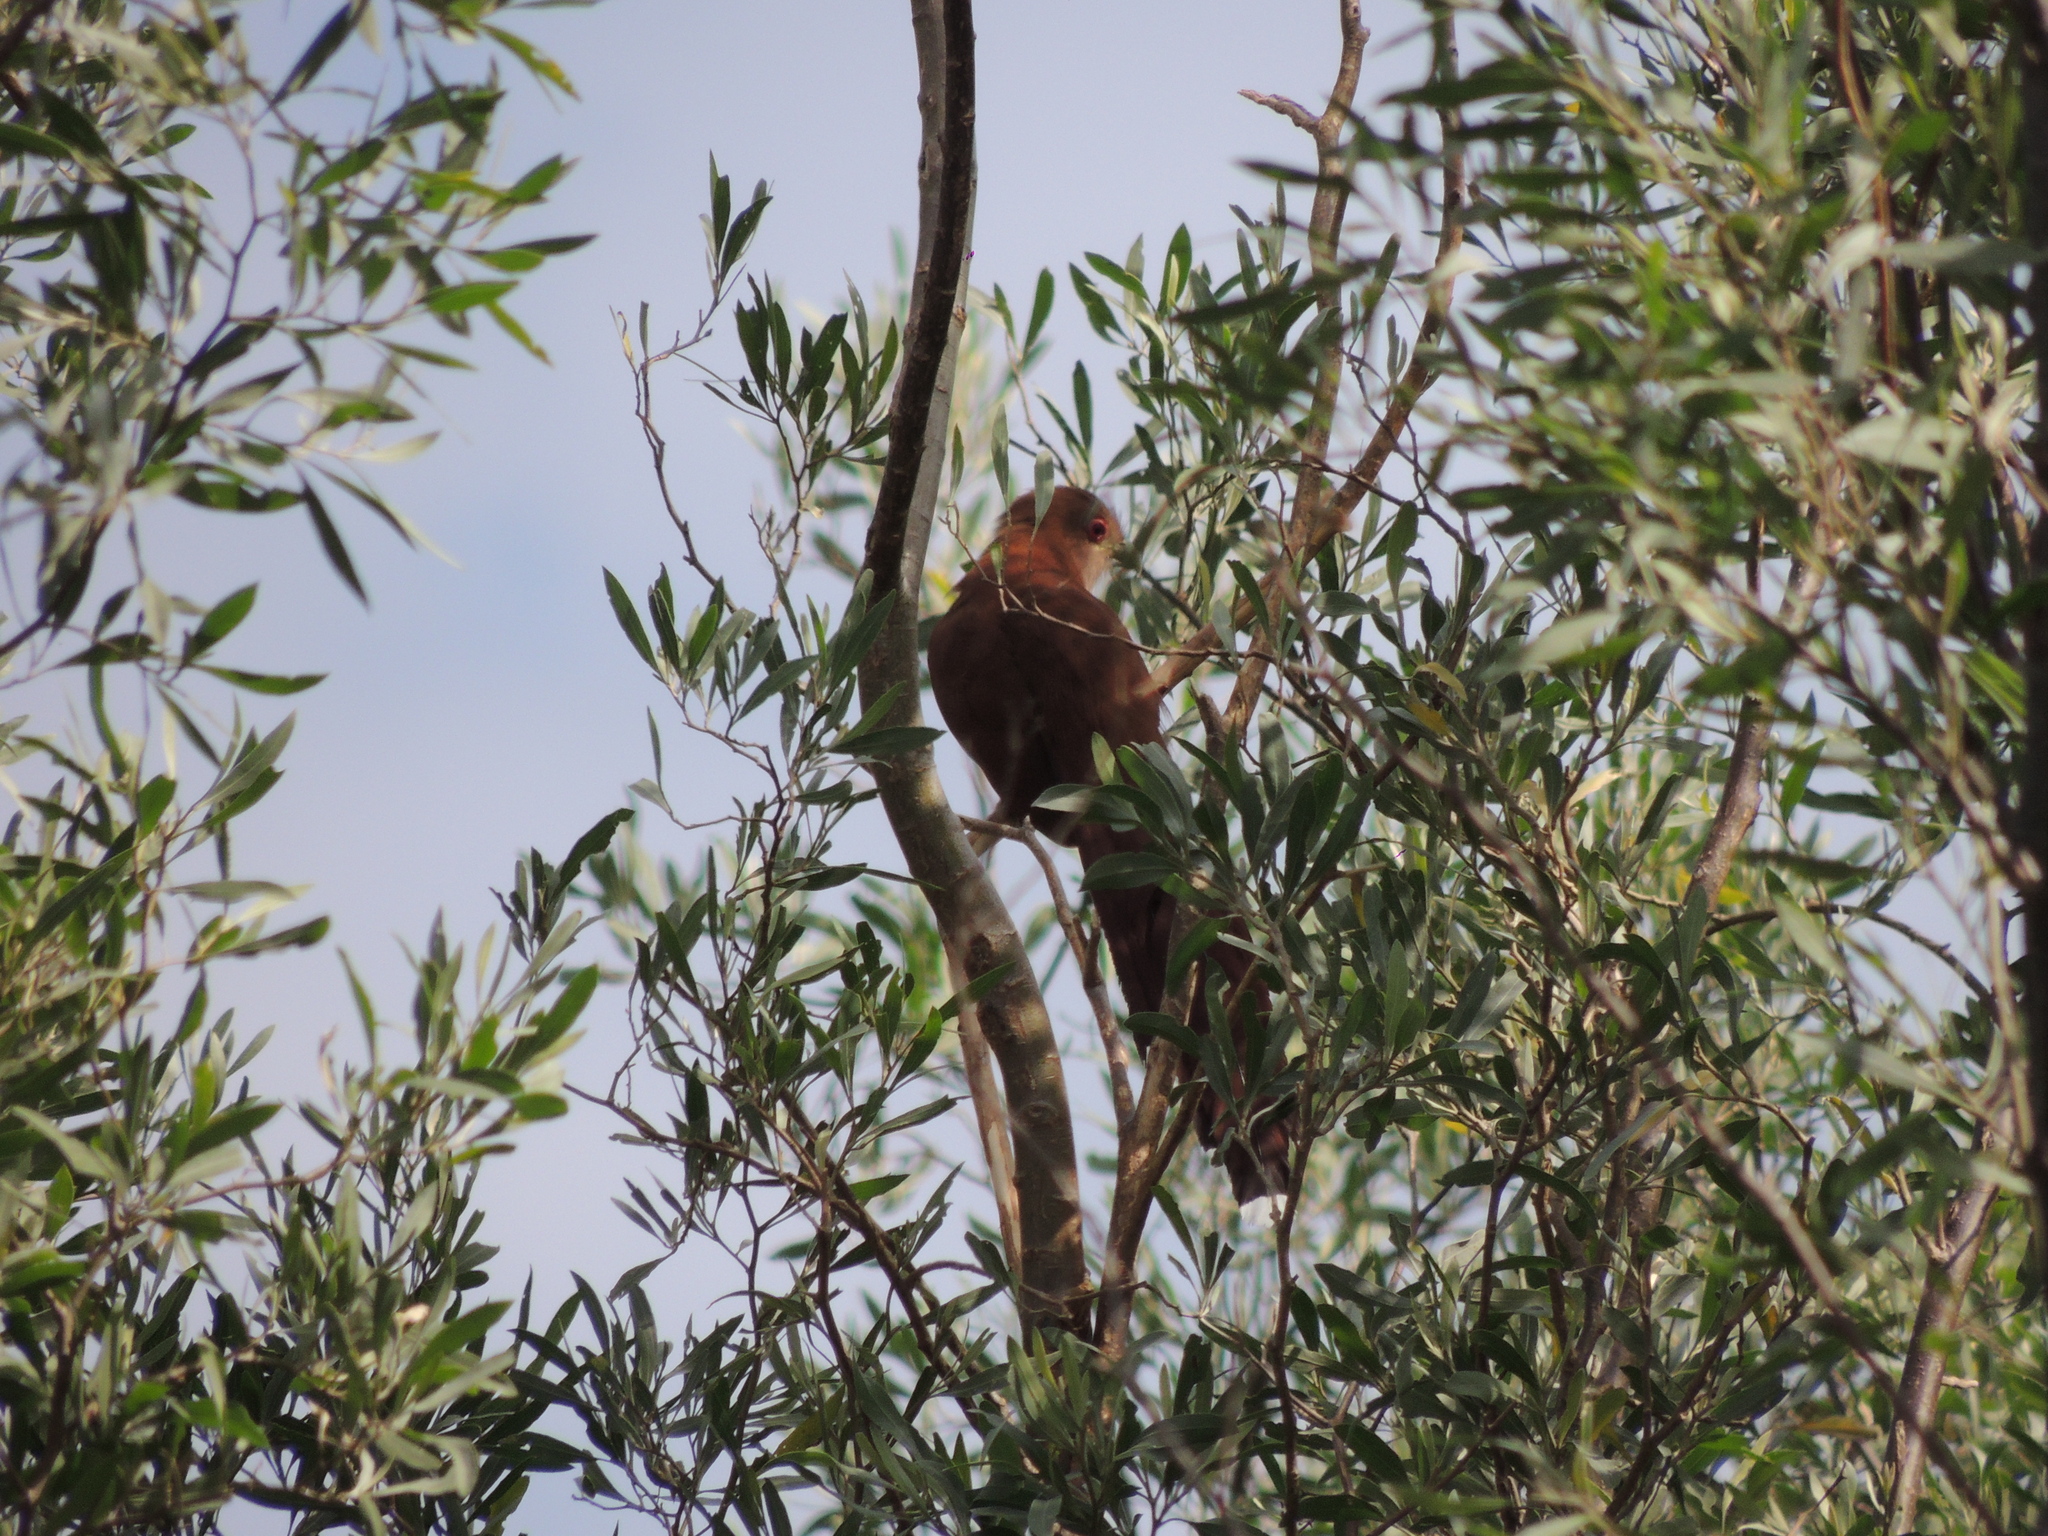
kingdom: Animalia
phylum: Chordata
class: Aves
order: Cuculiformes
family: Cuculidae
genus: Piaya
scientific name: Piaya cayana
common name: Squirrel cuckoo
